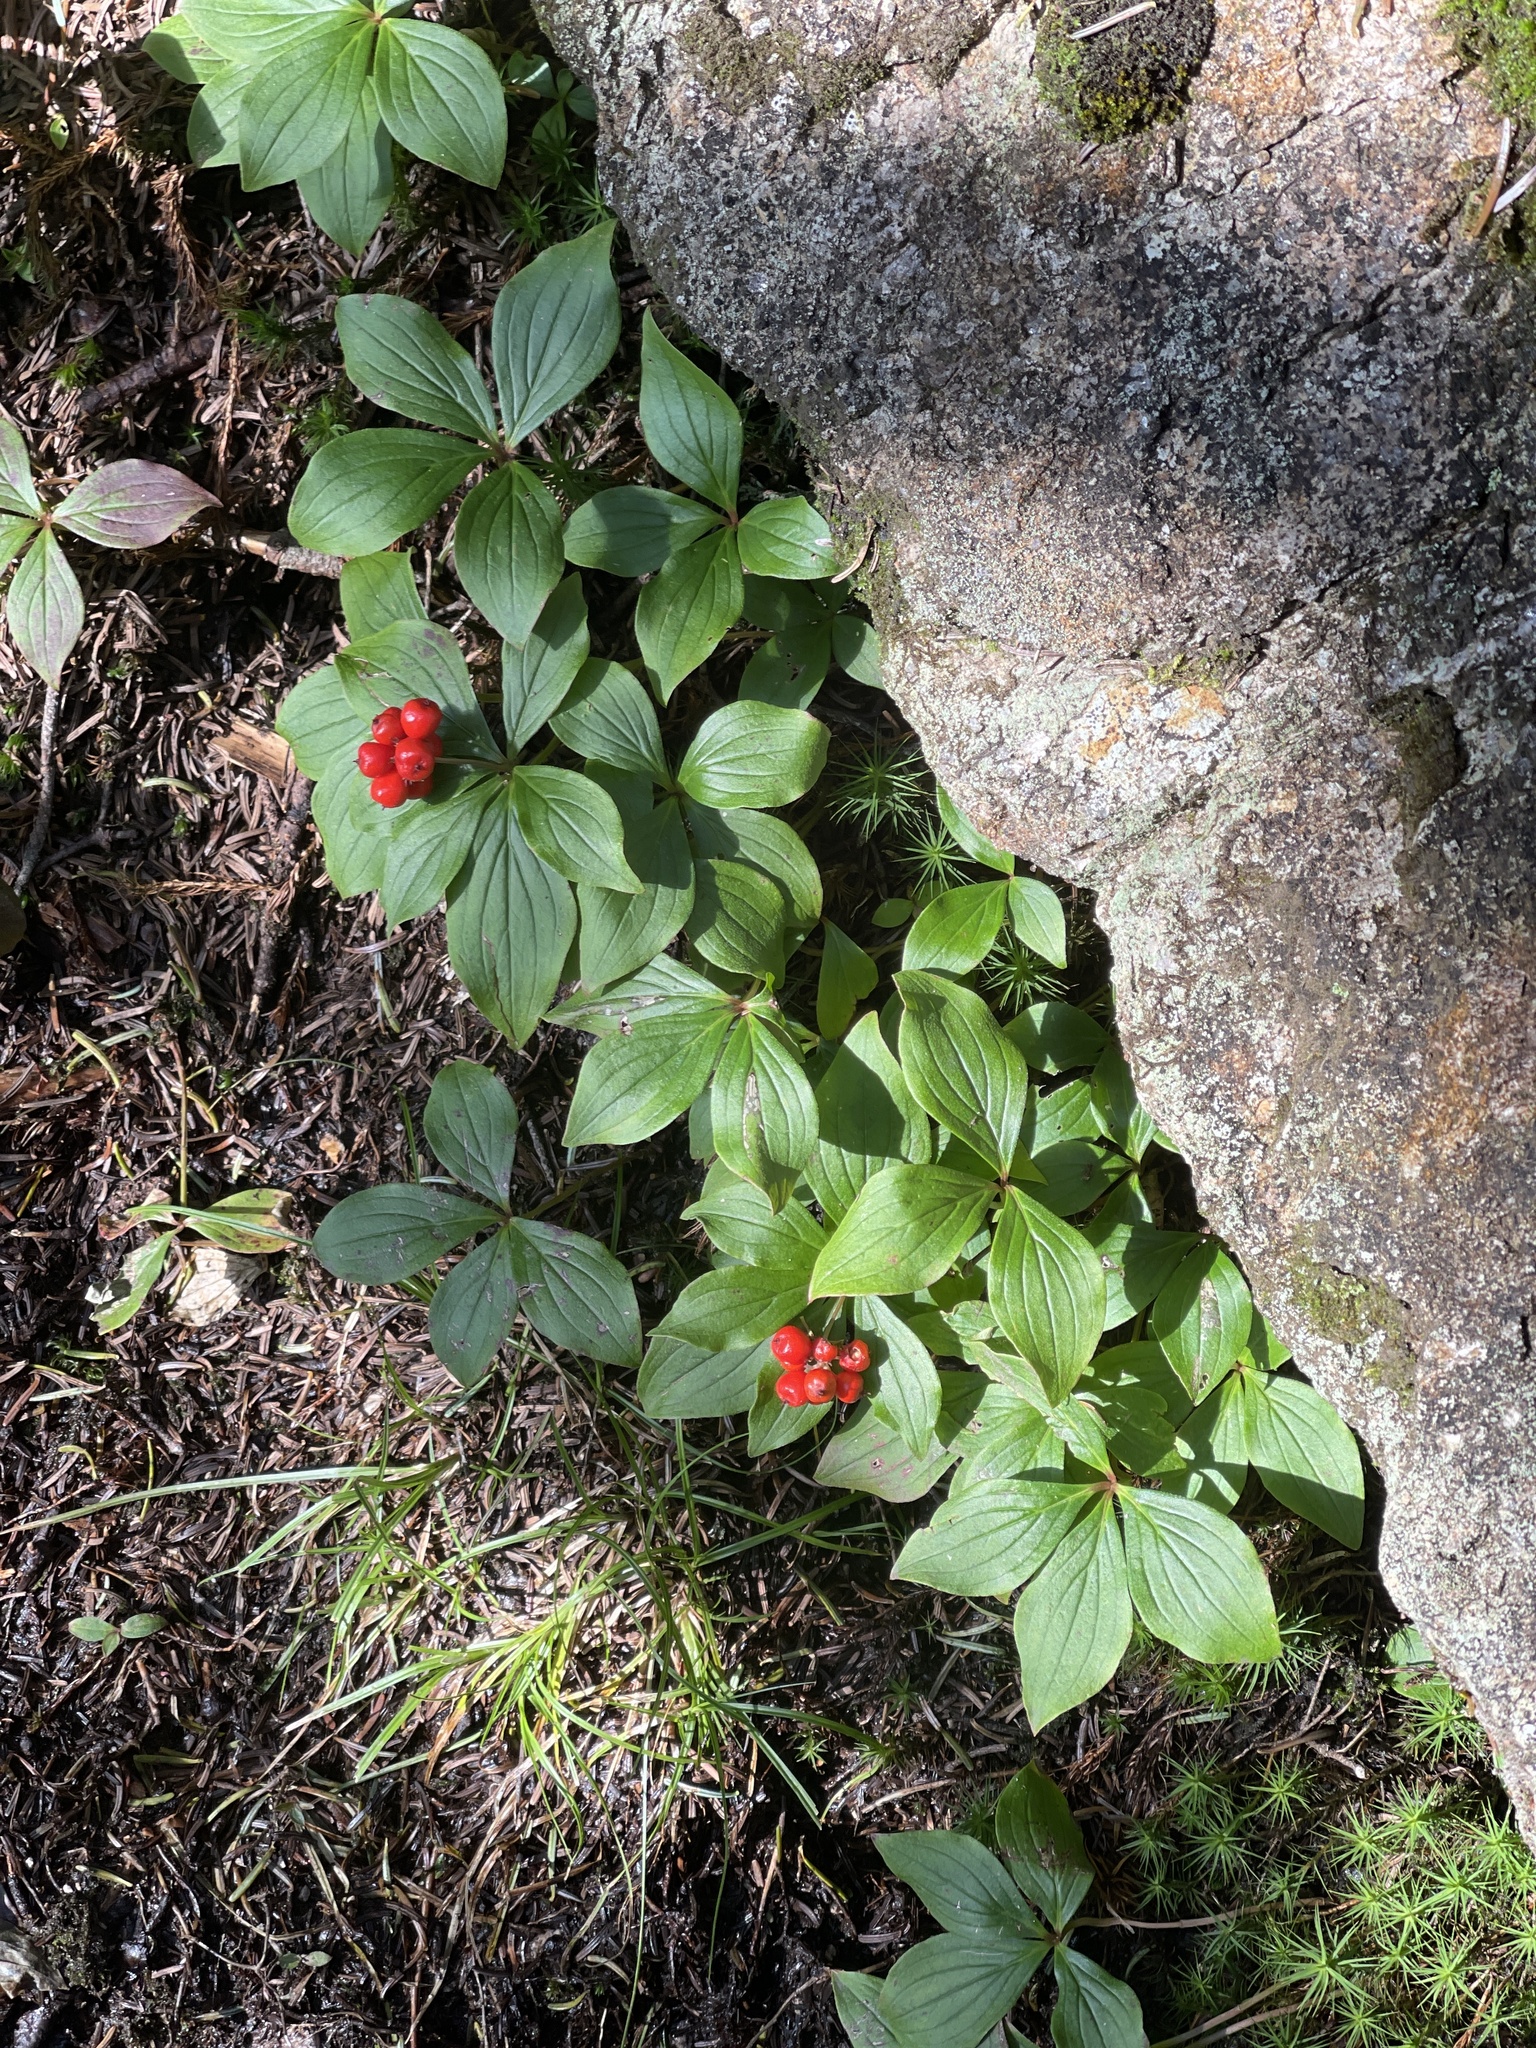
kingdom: Plantae
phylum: Tracheophyta
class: Magnoliopsida
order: Cornales
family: Cornaceae
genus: Cornus
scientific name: Cornus canadensis
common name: Creeping dogwood
